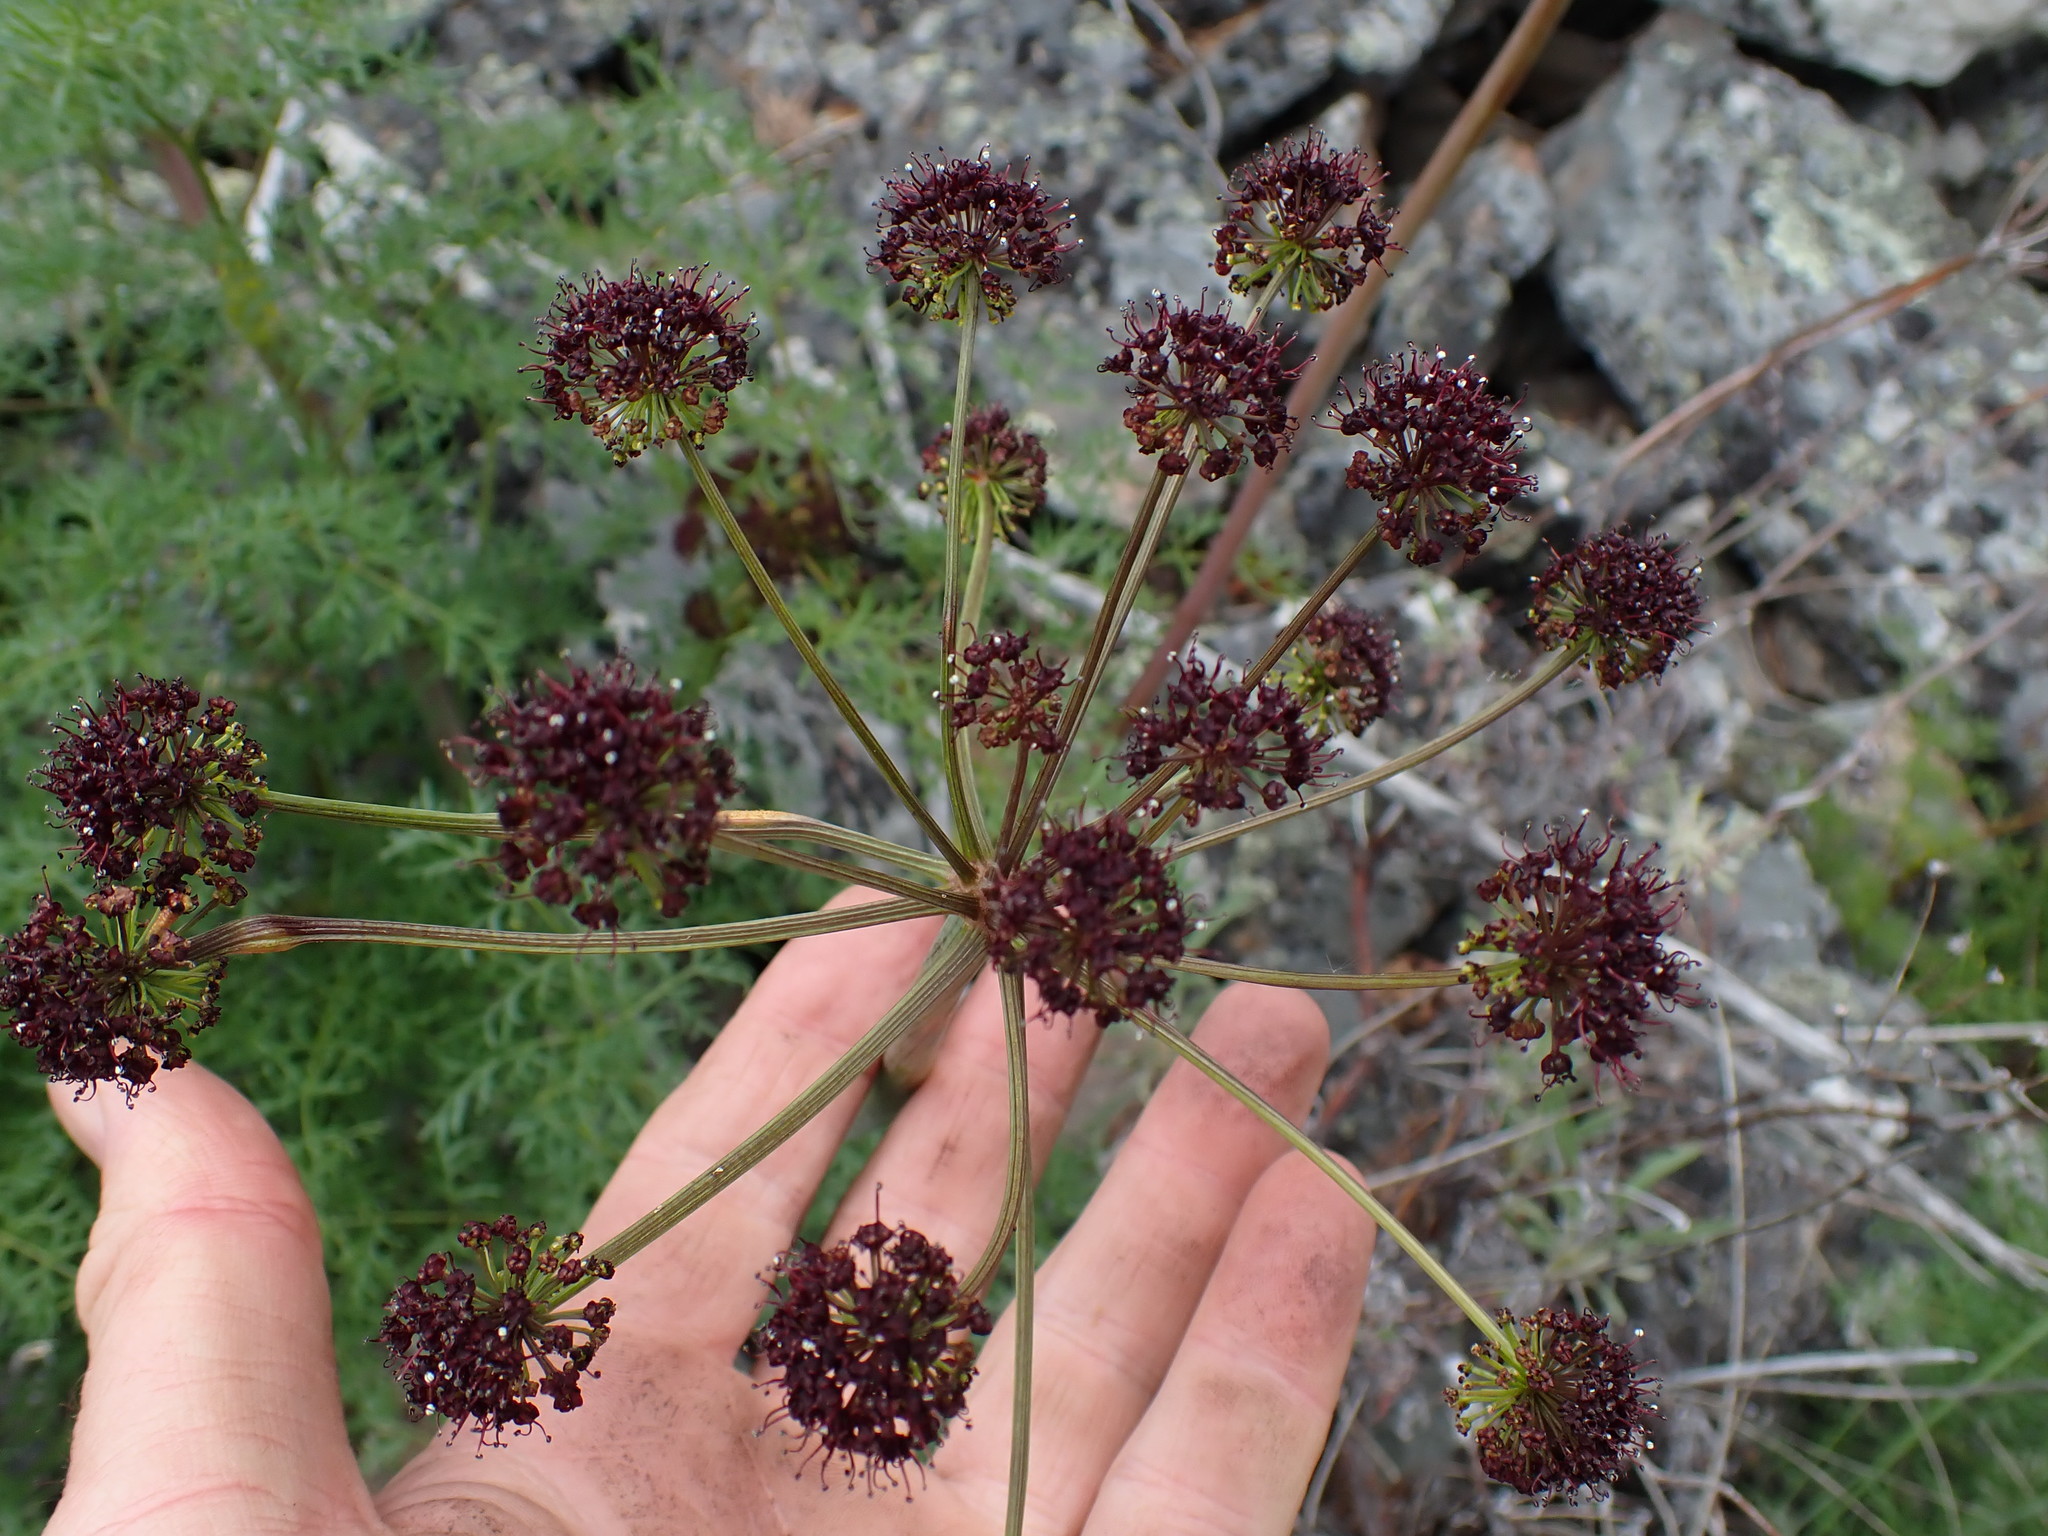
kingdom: Plantae
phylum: Tracheophyta
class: Magnoliopsida
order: Apiales
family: Apiaceae
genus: Lomatium
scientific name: Lomatium multifidum
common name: Carrot-leaved biscuitroot
